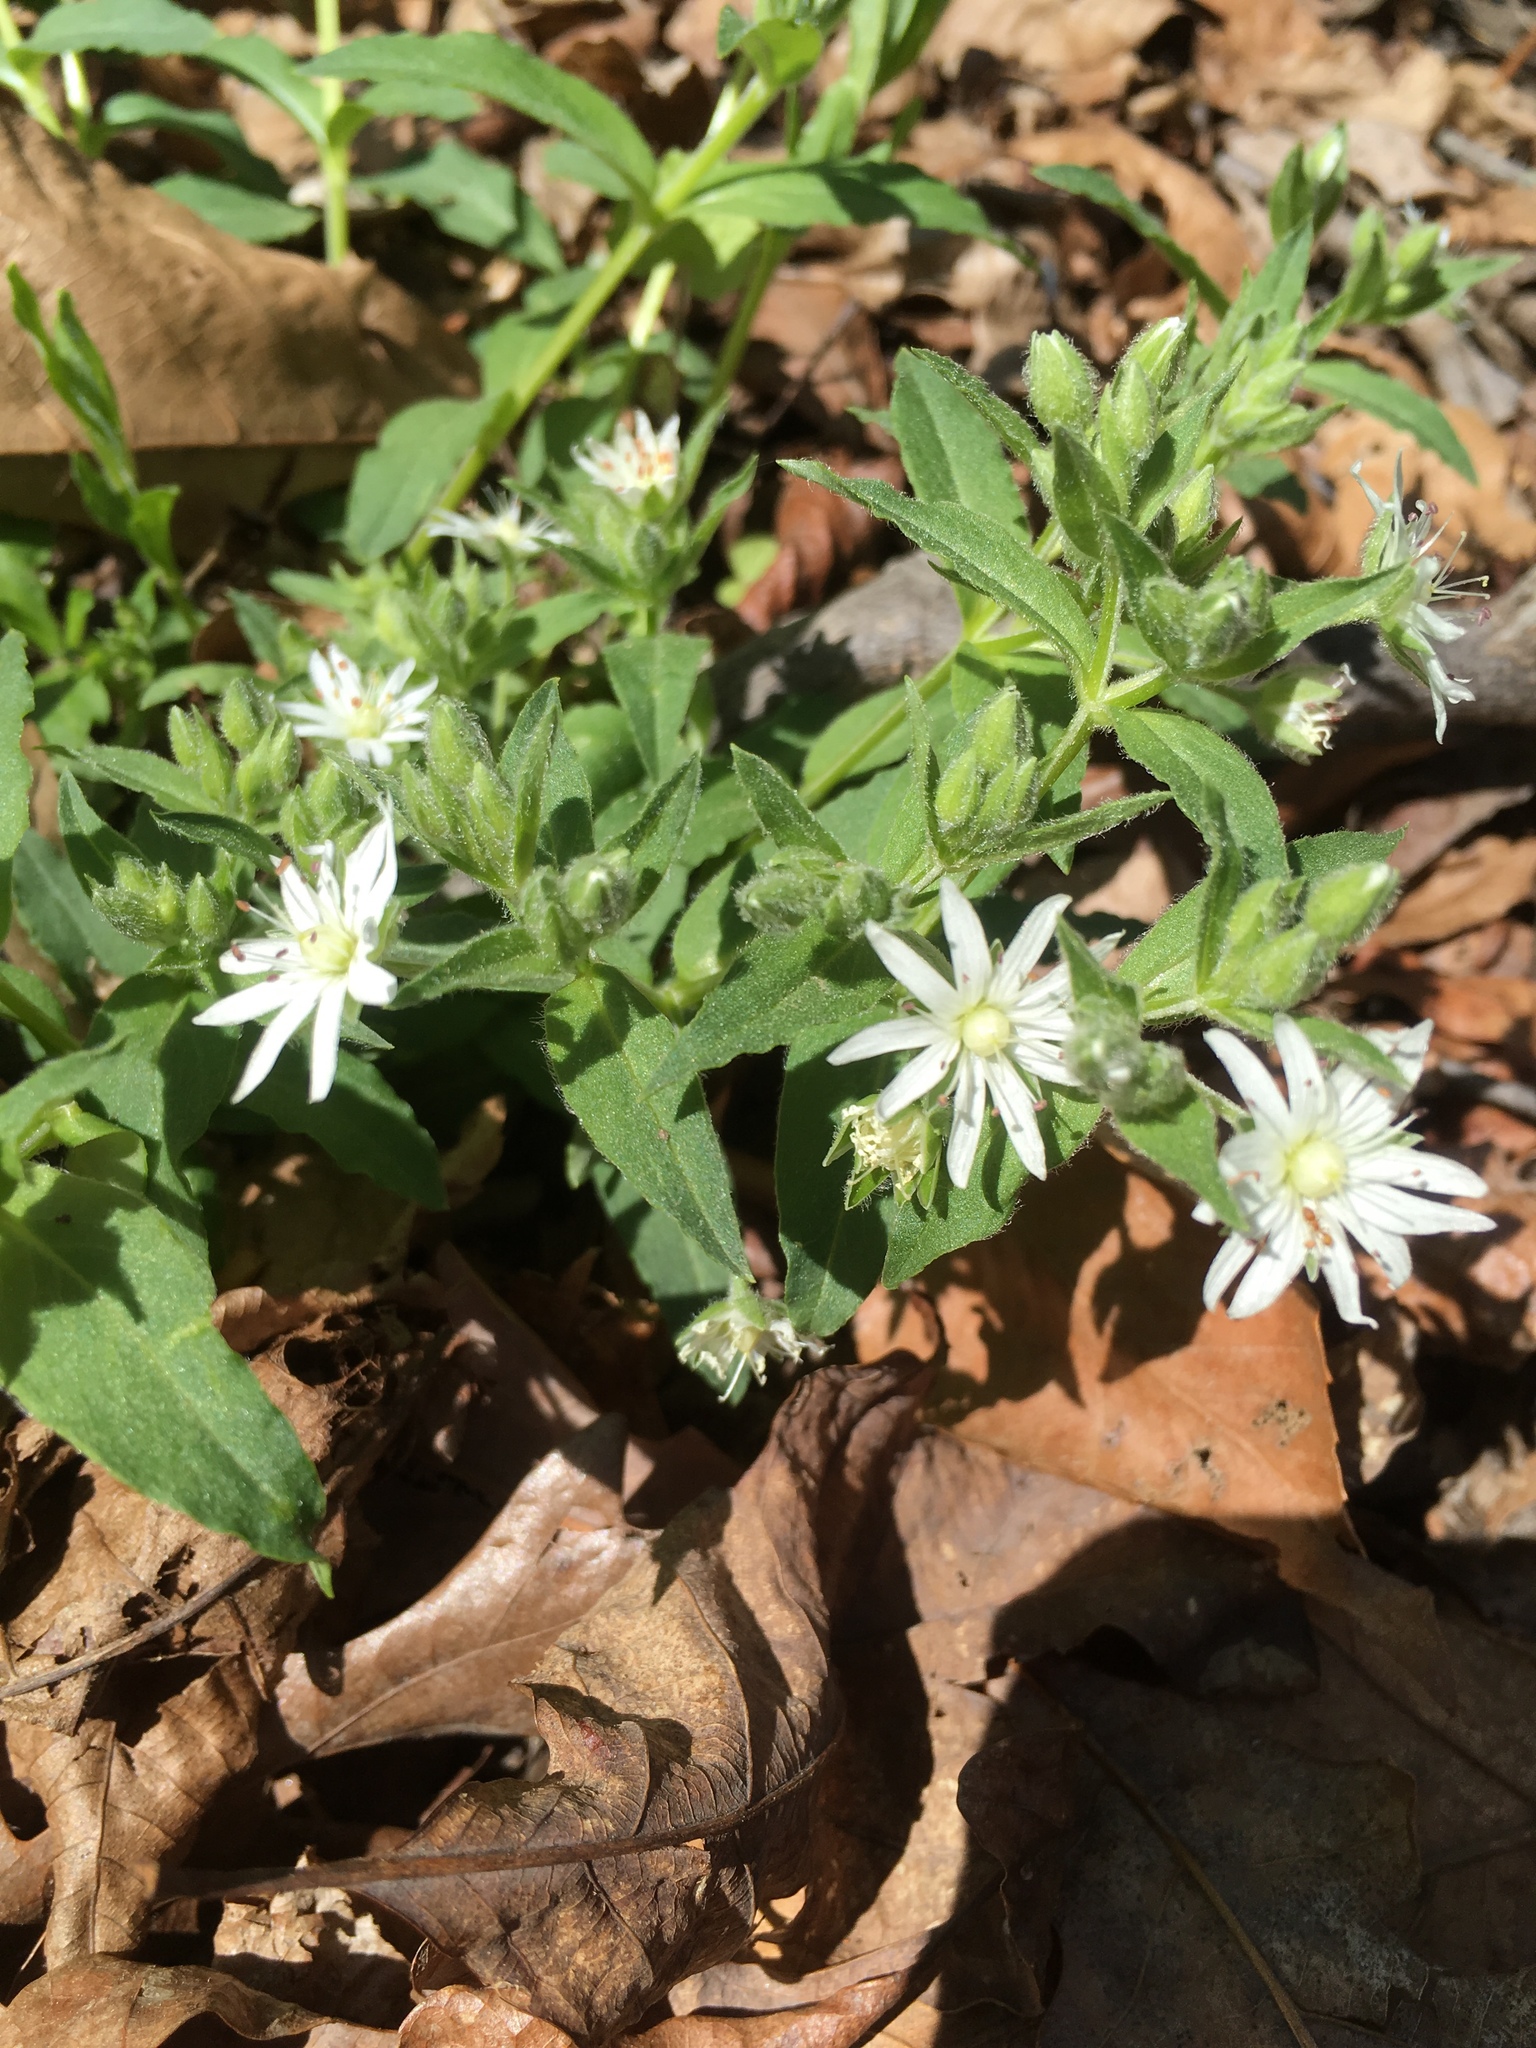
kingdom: Plantae
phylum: Tracheophyta
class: Magnoliopsida
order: Caryophyllales
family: Caryophyllaceae
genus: Stellaria
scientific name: Stellaria pubera
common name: Star chickweed
